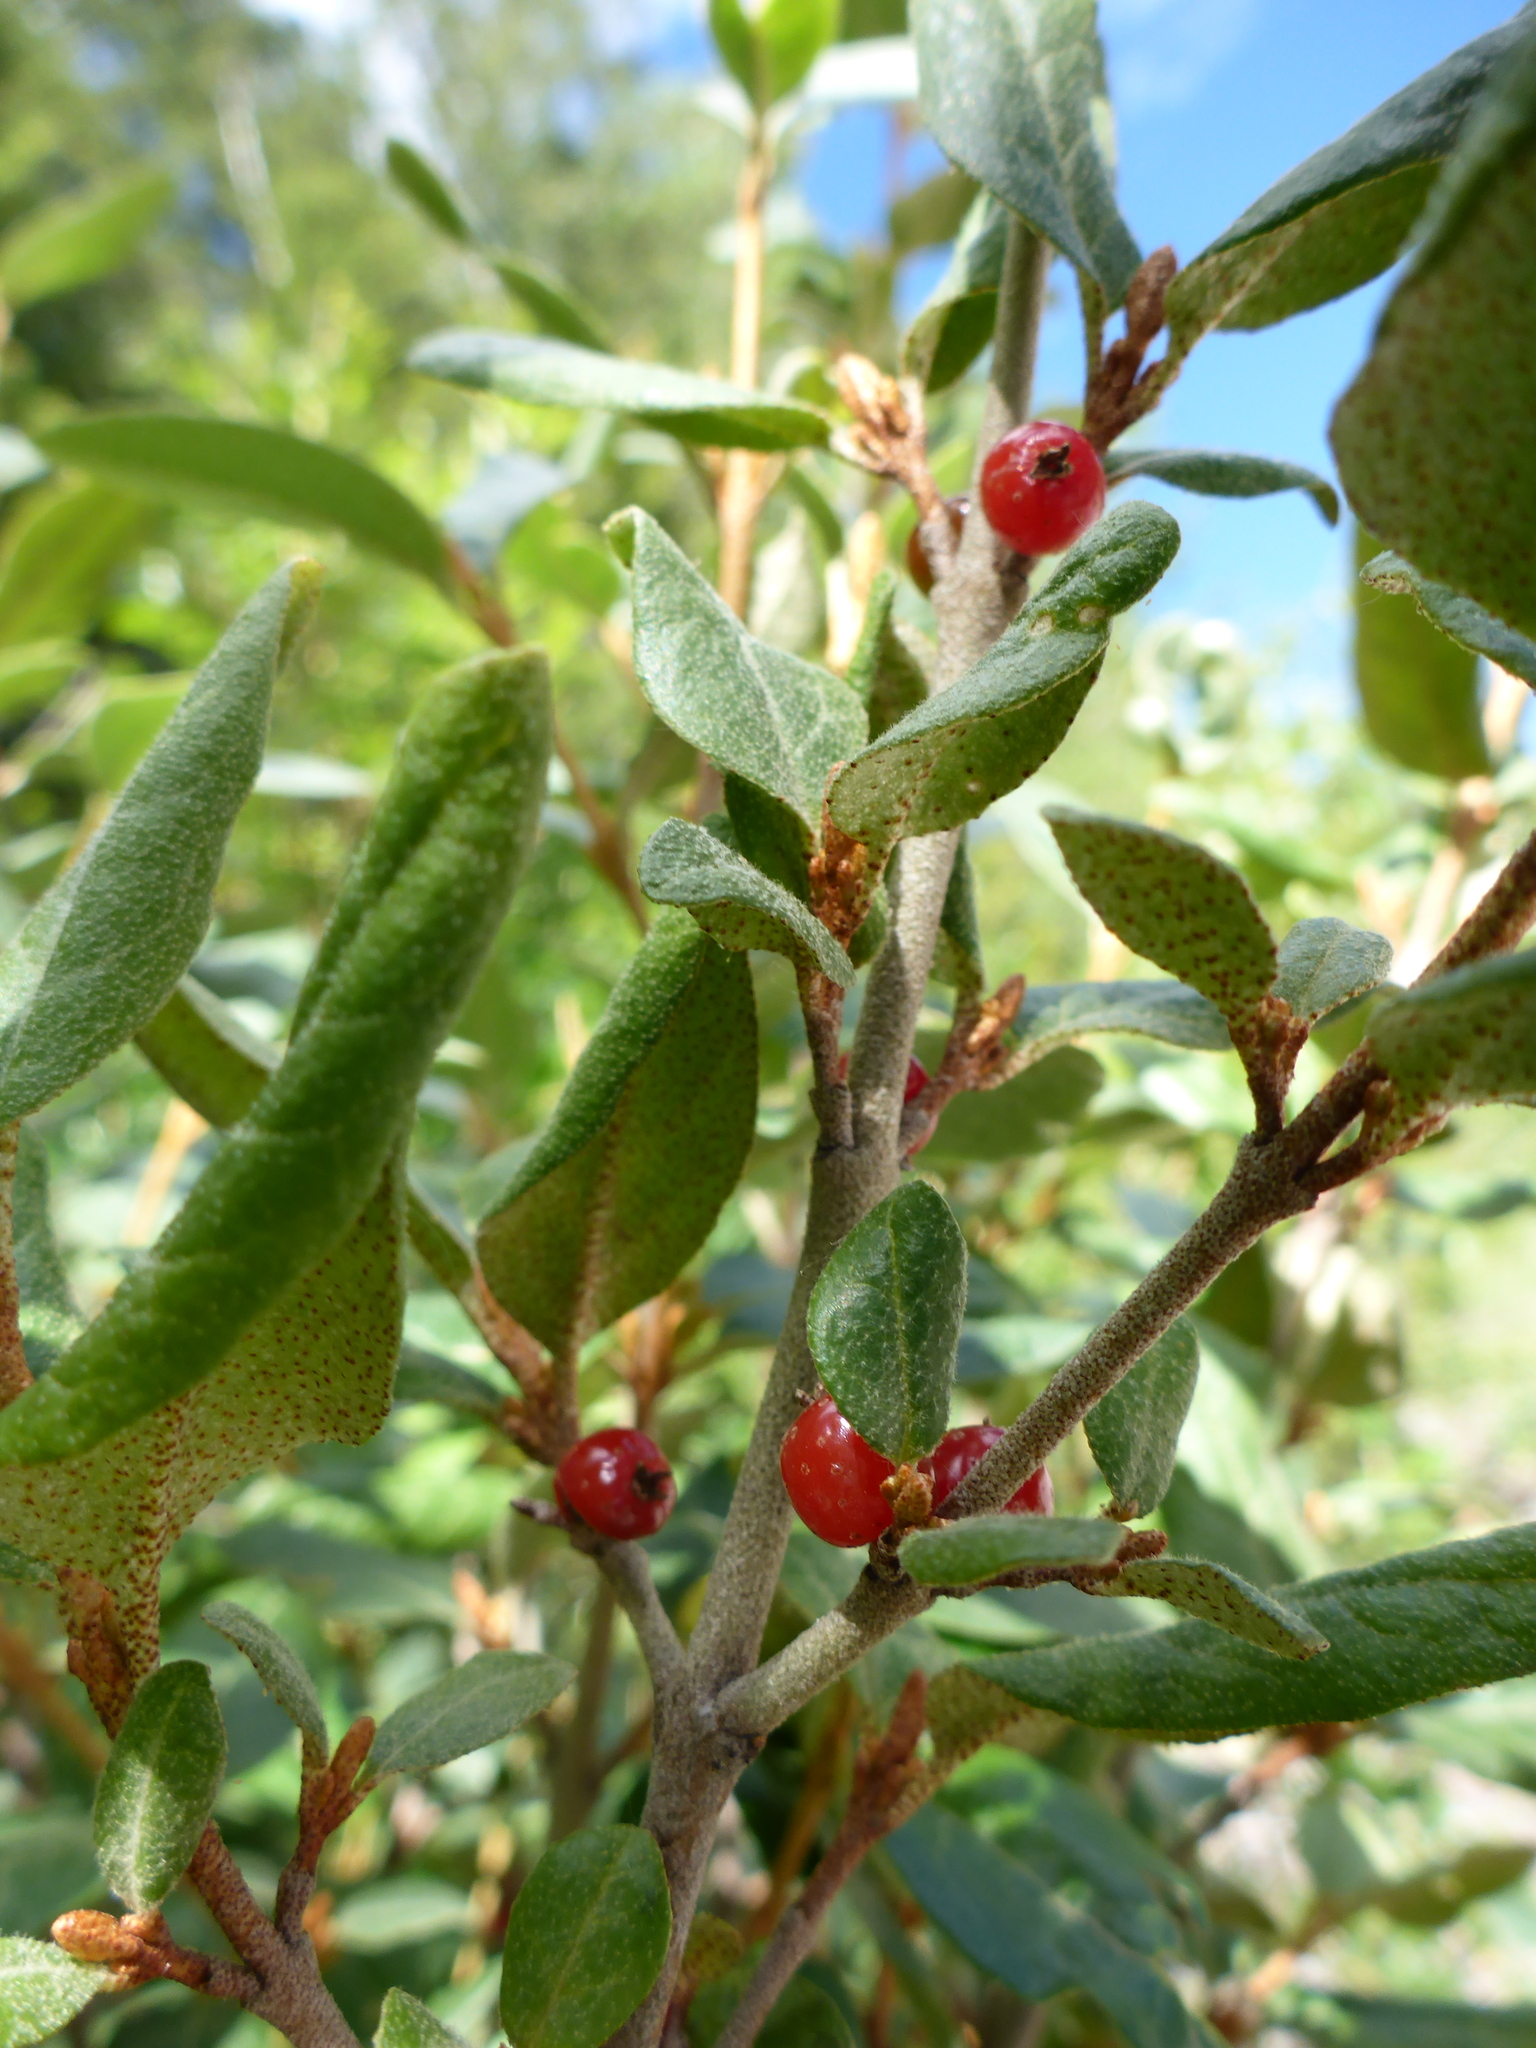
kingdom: Plantae
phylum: Tracheophyta
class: Magnoliopsida
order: Rosales
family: Elaeagnaceae
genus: Shepherdia
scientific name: Shepherdia canadensis
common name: Soapberry
